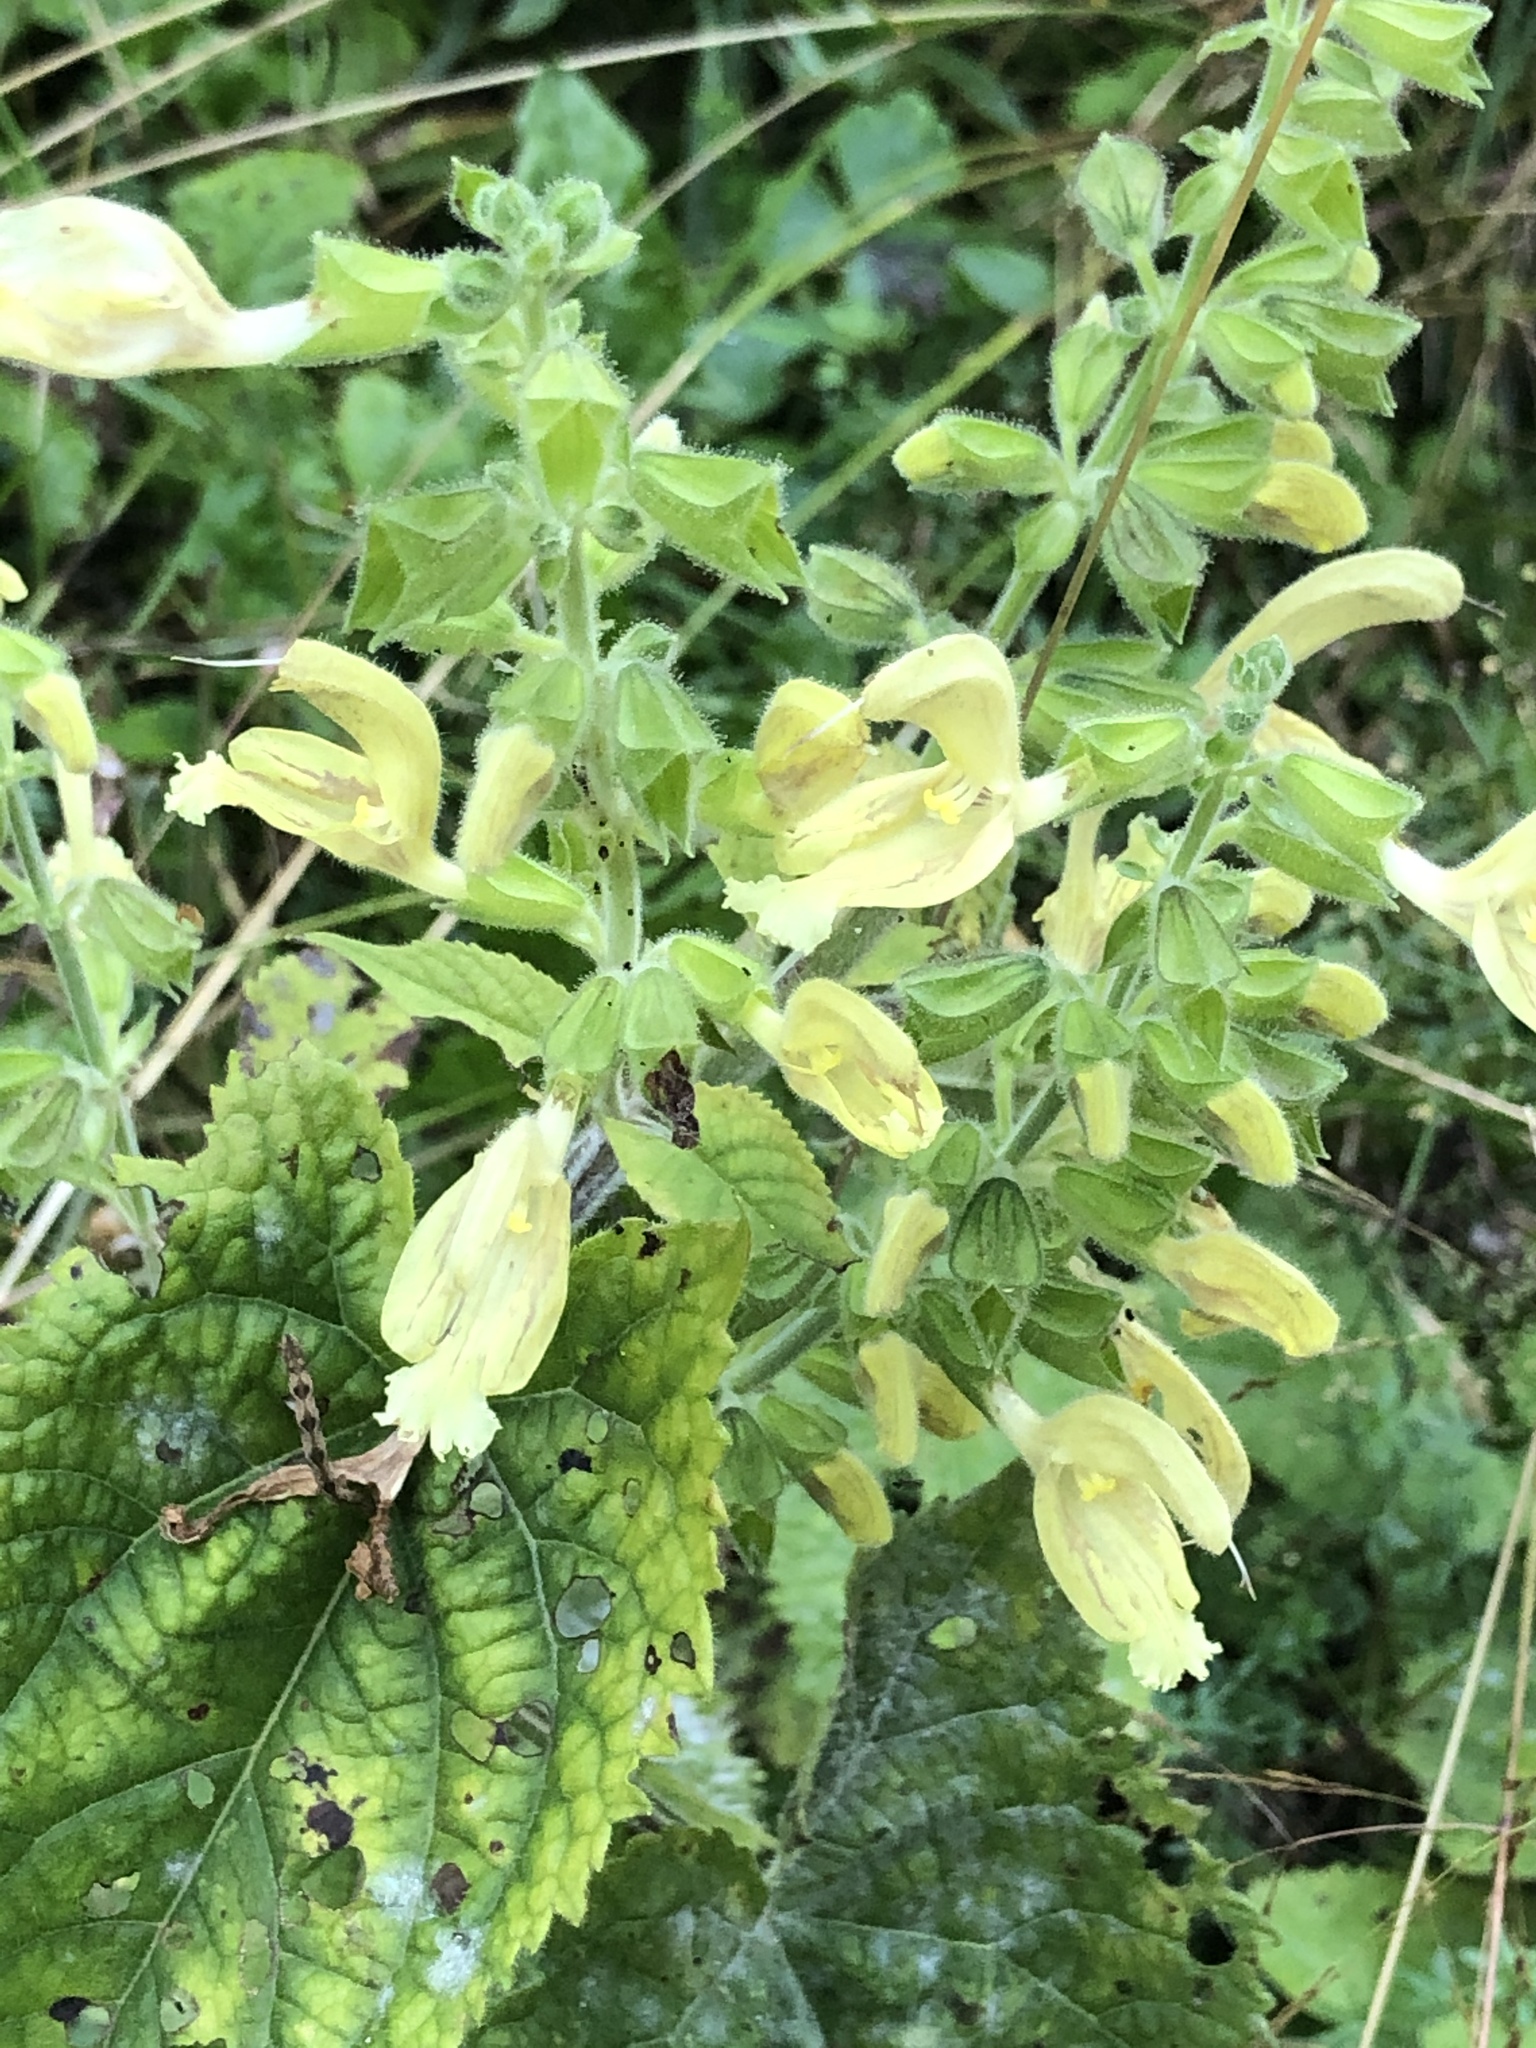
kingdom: Plantae
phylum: Tracheophyta
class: Magnoliopsida
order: Lamiales
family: Lamiaceae
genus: Salvia
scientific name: Salvia glutinosa
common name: Sticky clary
